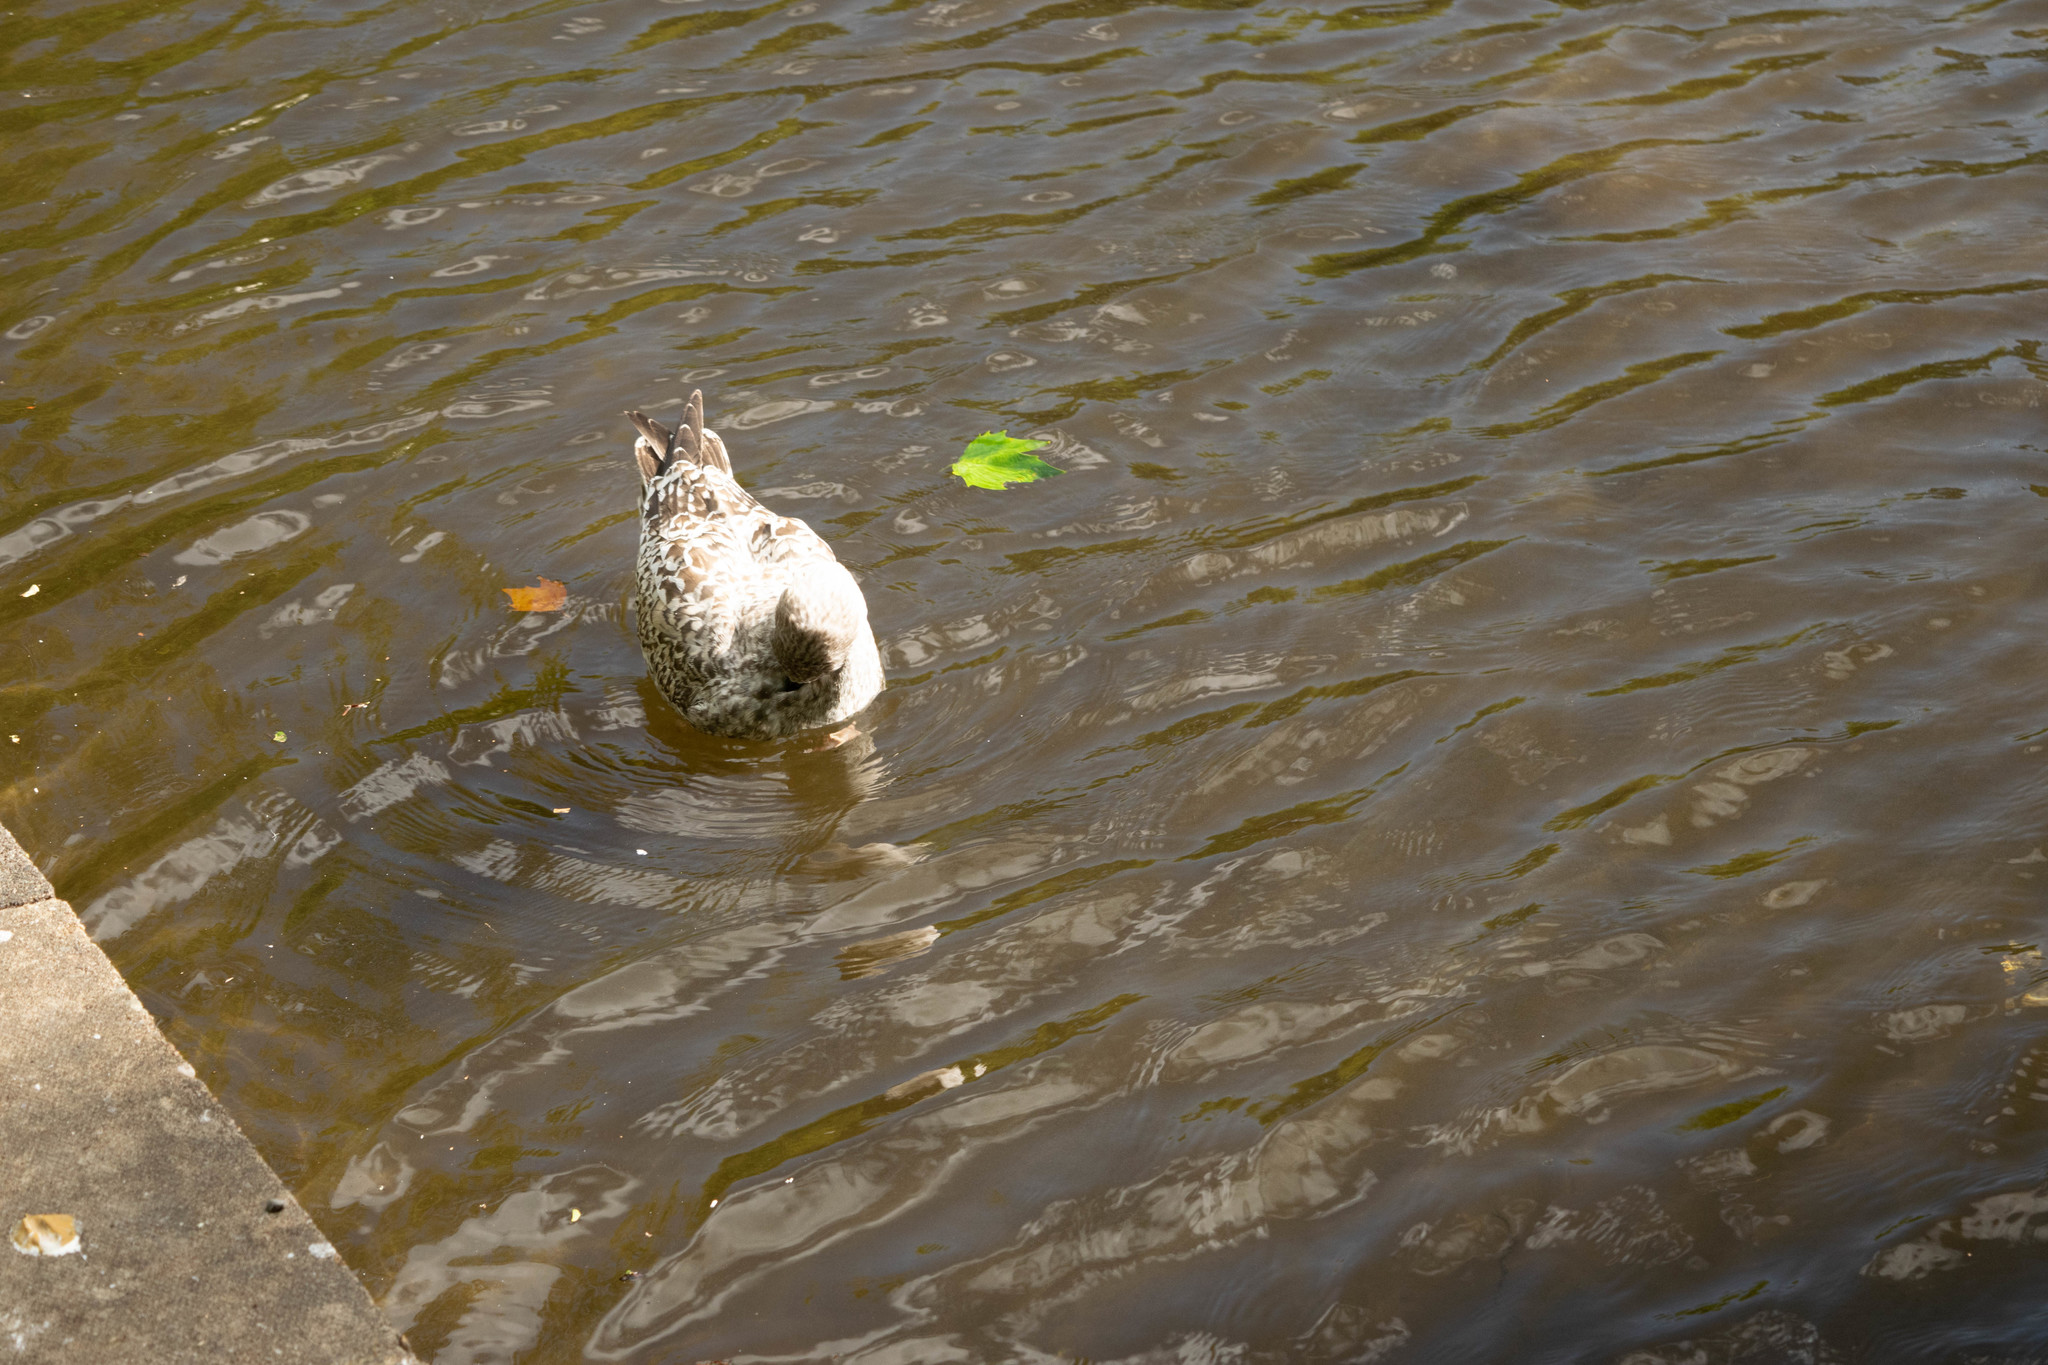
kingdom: Animalia
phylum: Chordata
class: Aves
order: Charadriiformes
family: Laridae
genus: Larus
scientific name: Larus argentatus
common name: Herring gull
